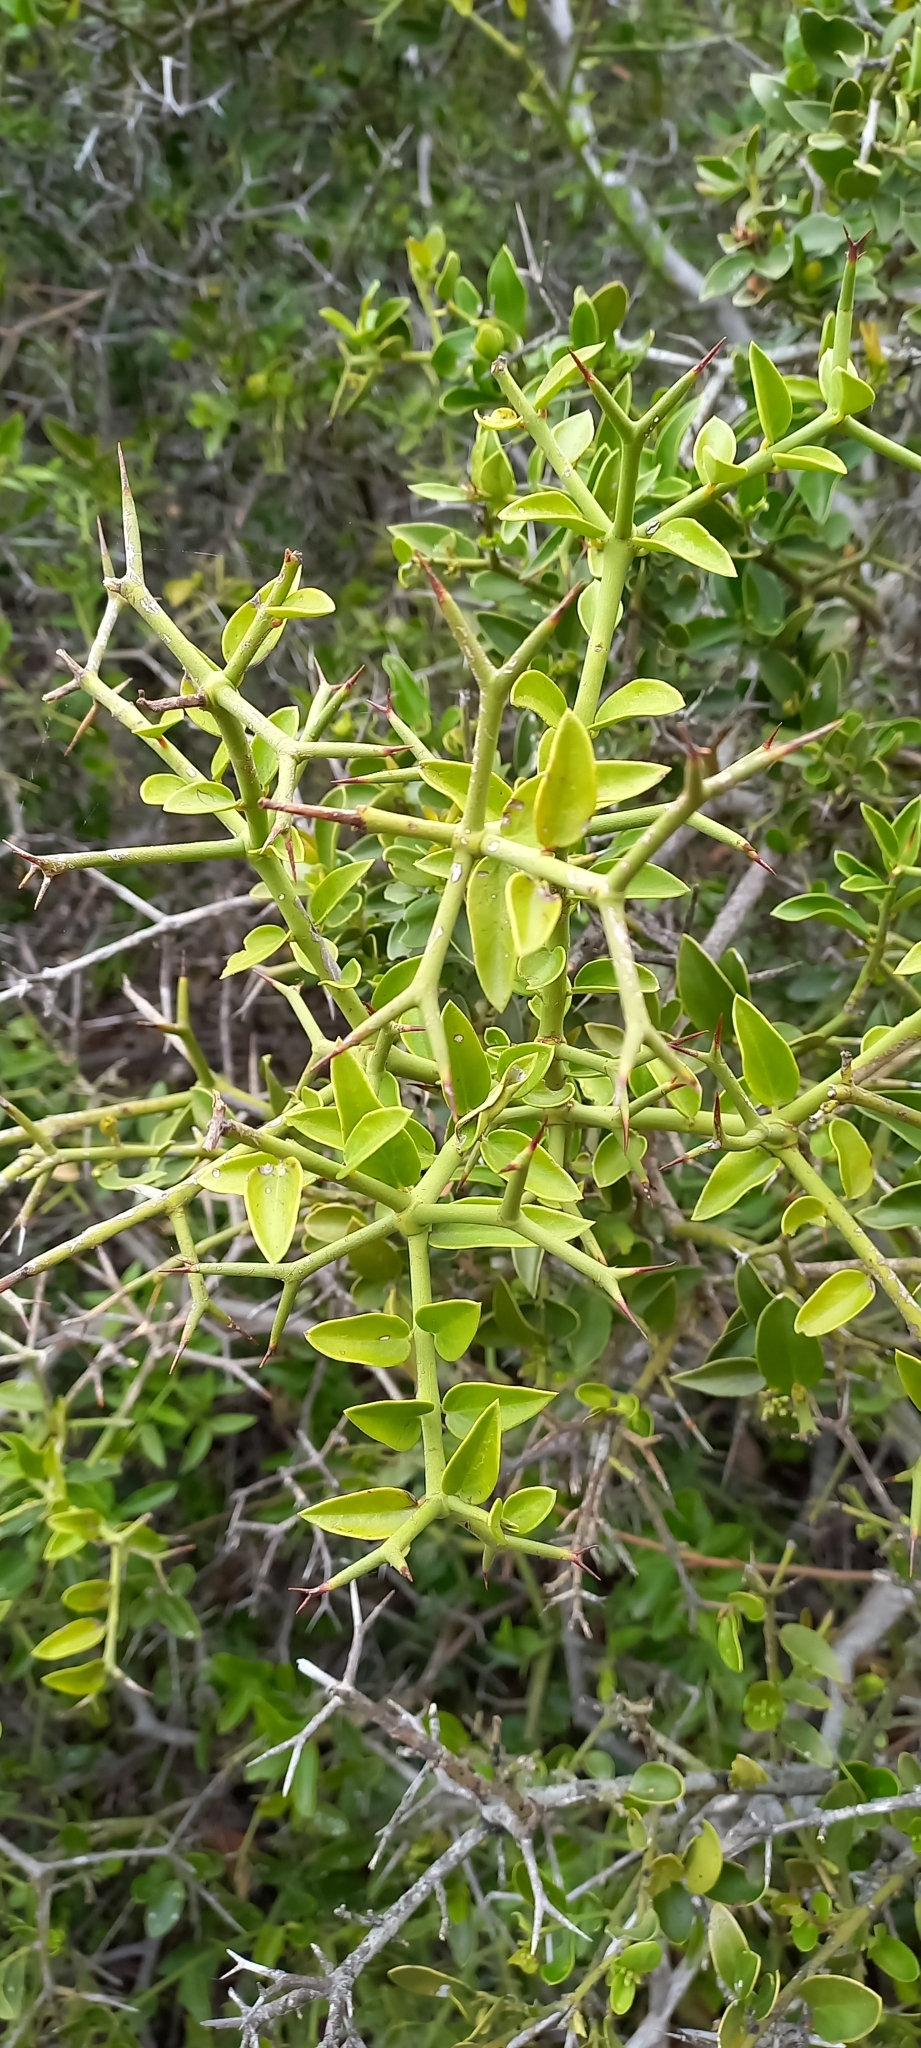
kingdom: Plantae
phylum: Tracheophyta
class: Magnoliopsida
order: Gentianales
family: Apocynaceae
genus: Carissa
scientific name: Carissa haematocarpa
